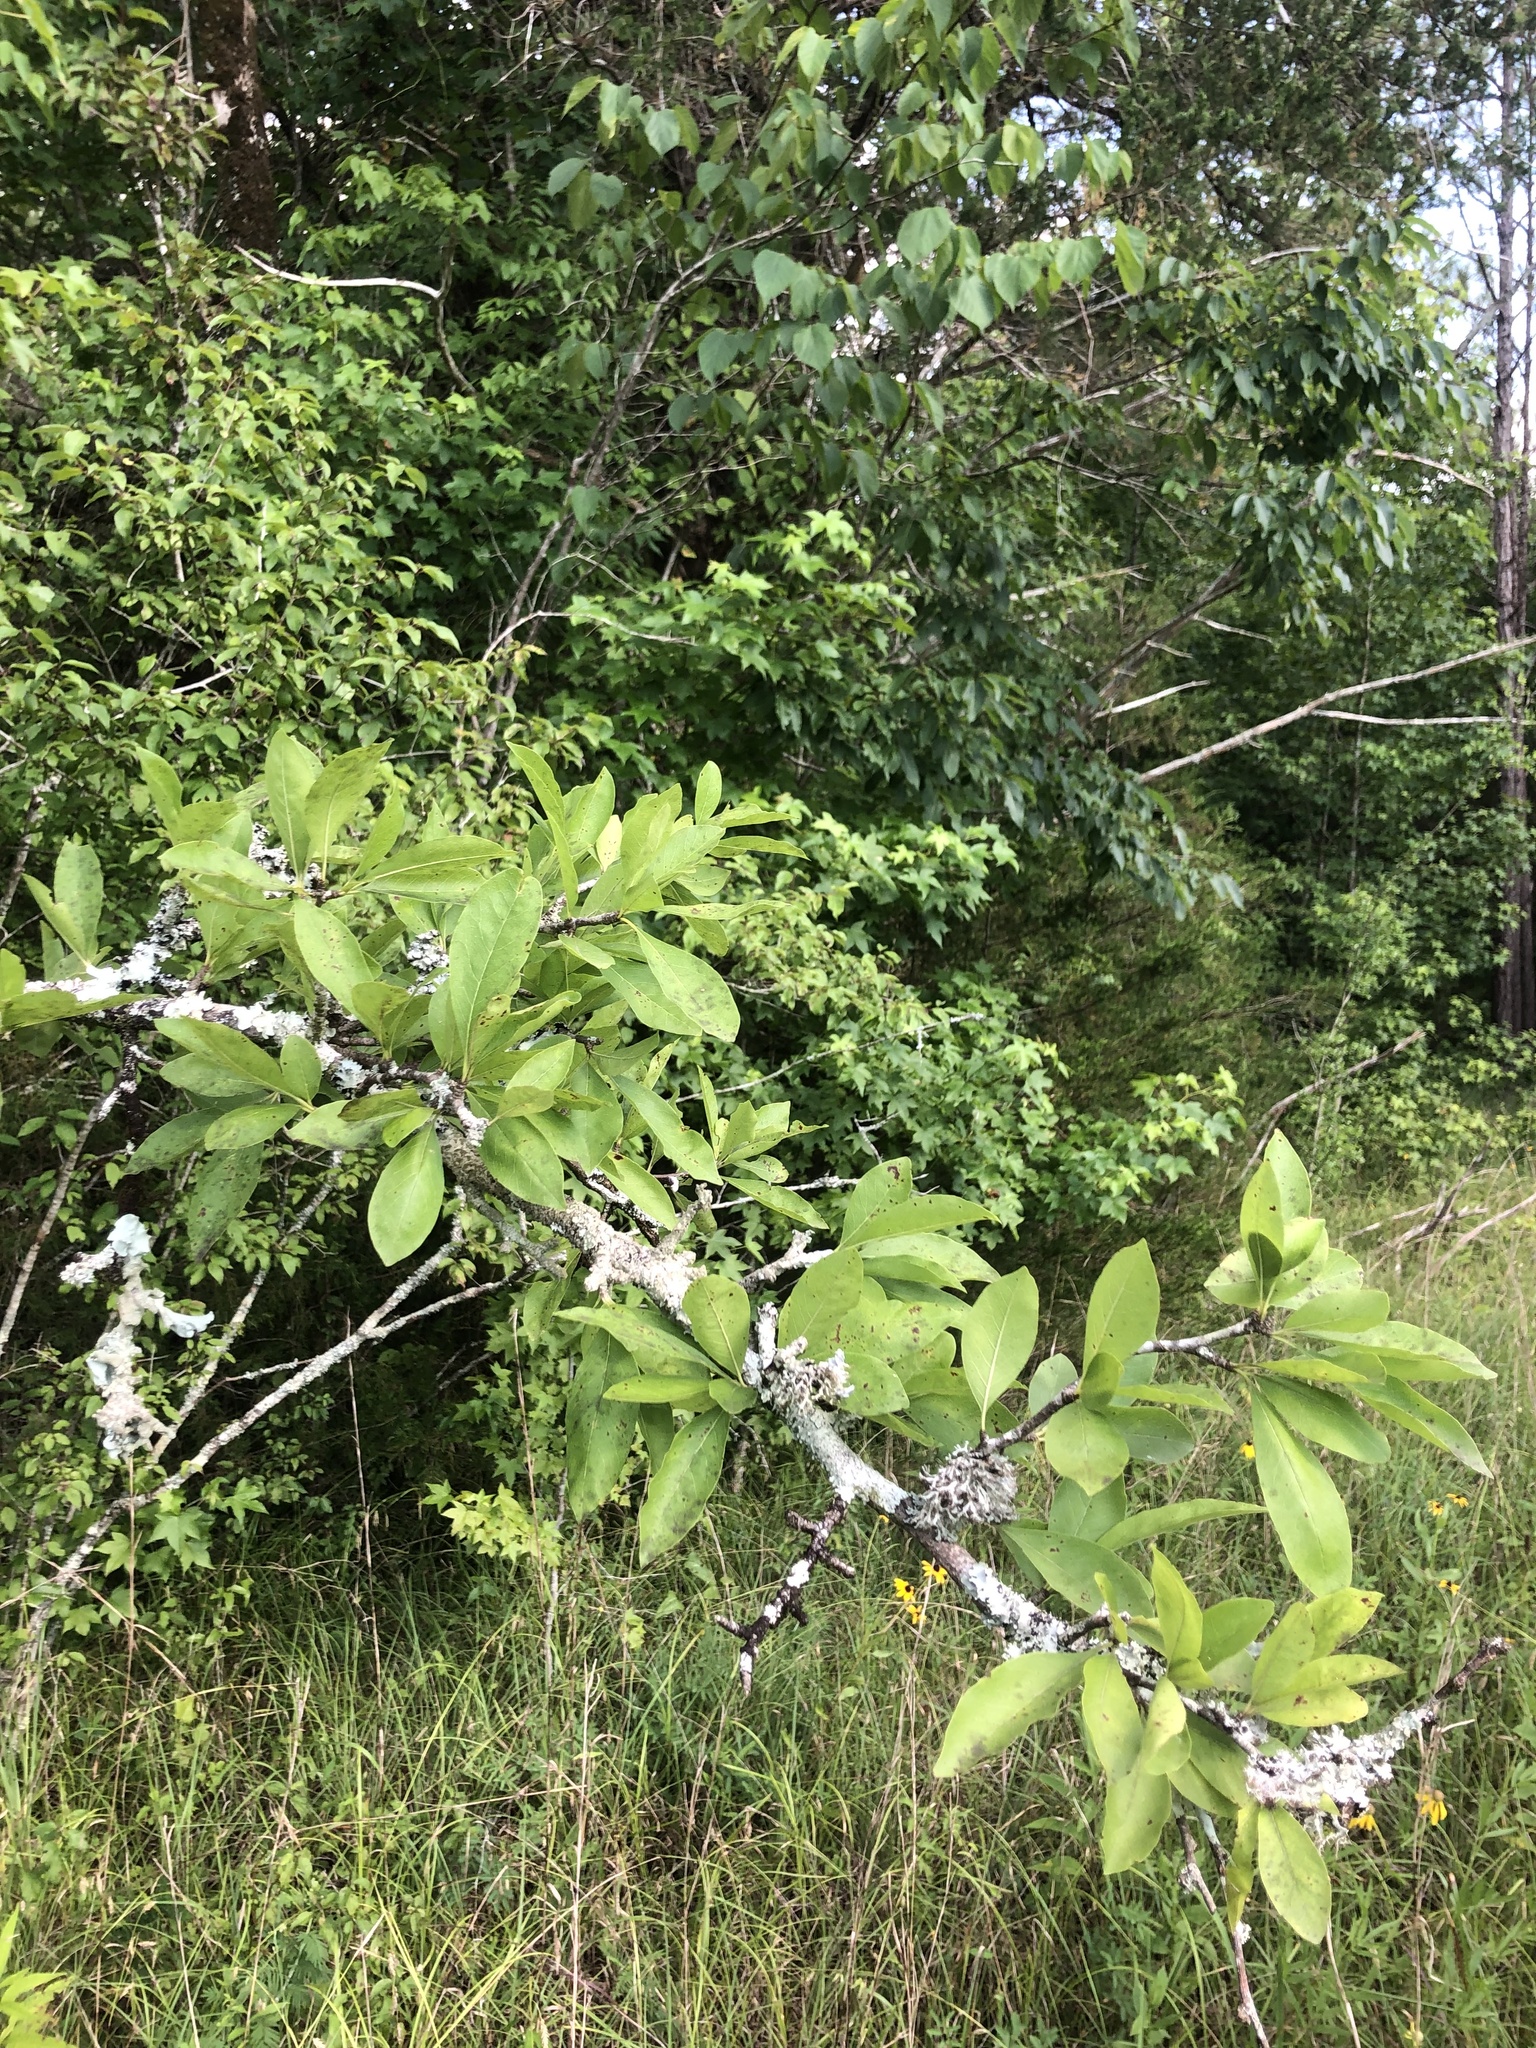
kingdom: Plantae
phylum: Tracheophyta
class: Magnoliopsida
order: Ericales
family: Sapotaceae
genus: Sideroxylon
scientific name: Sideroxylon lycioides
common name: Buckthorn bumelia
